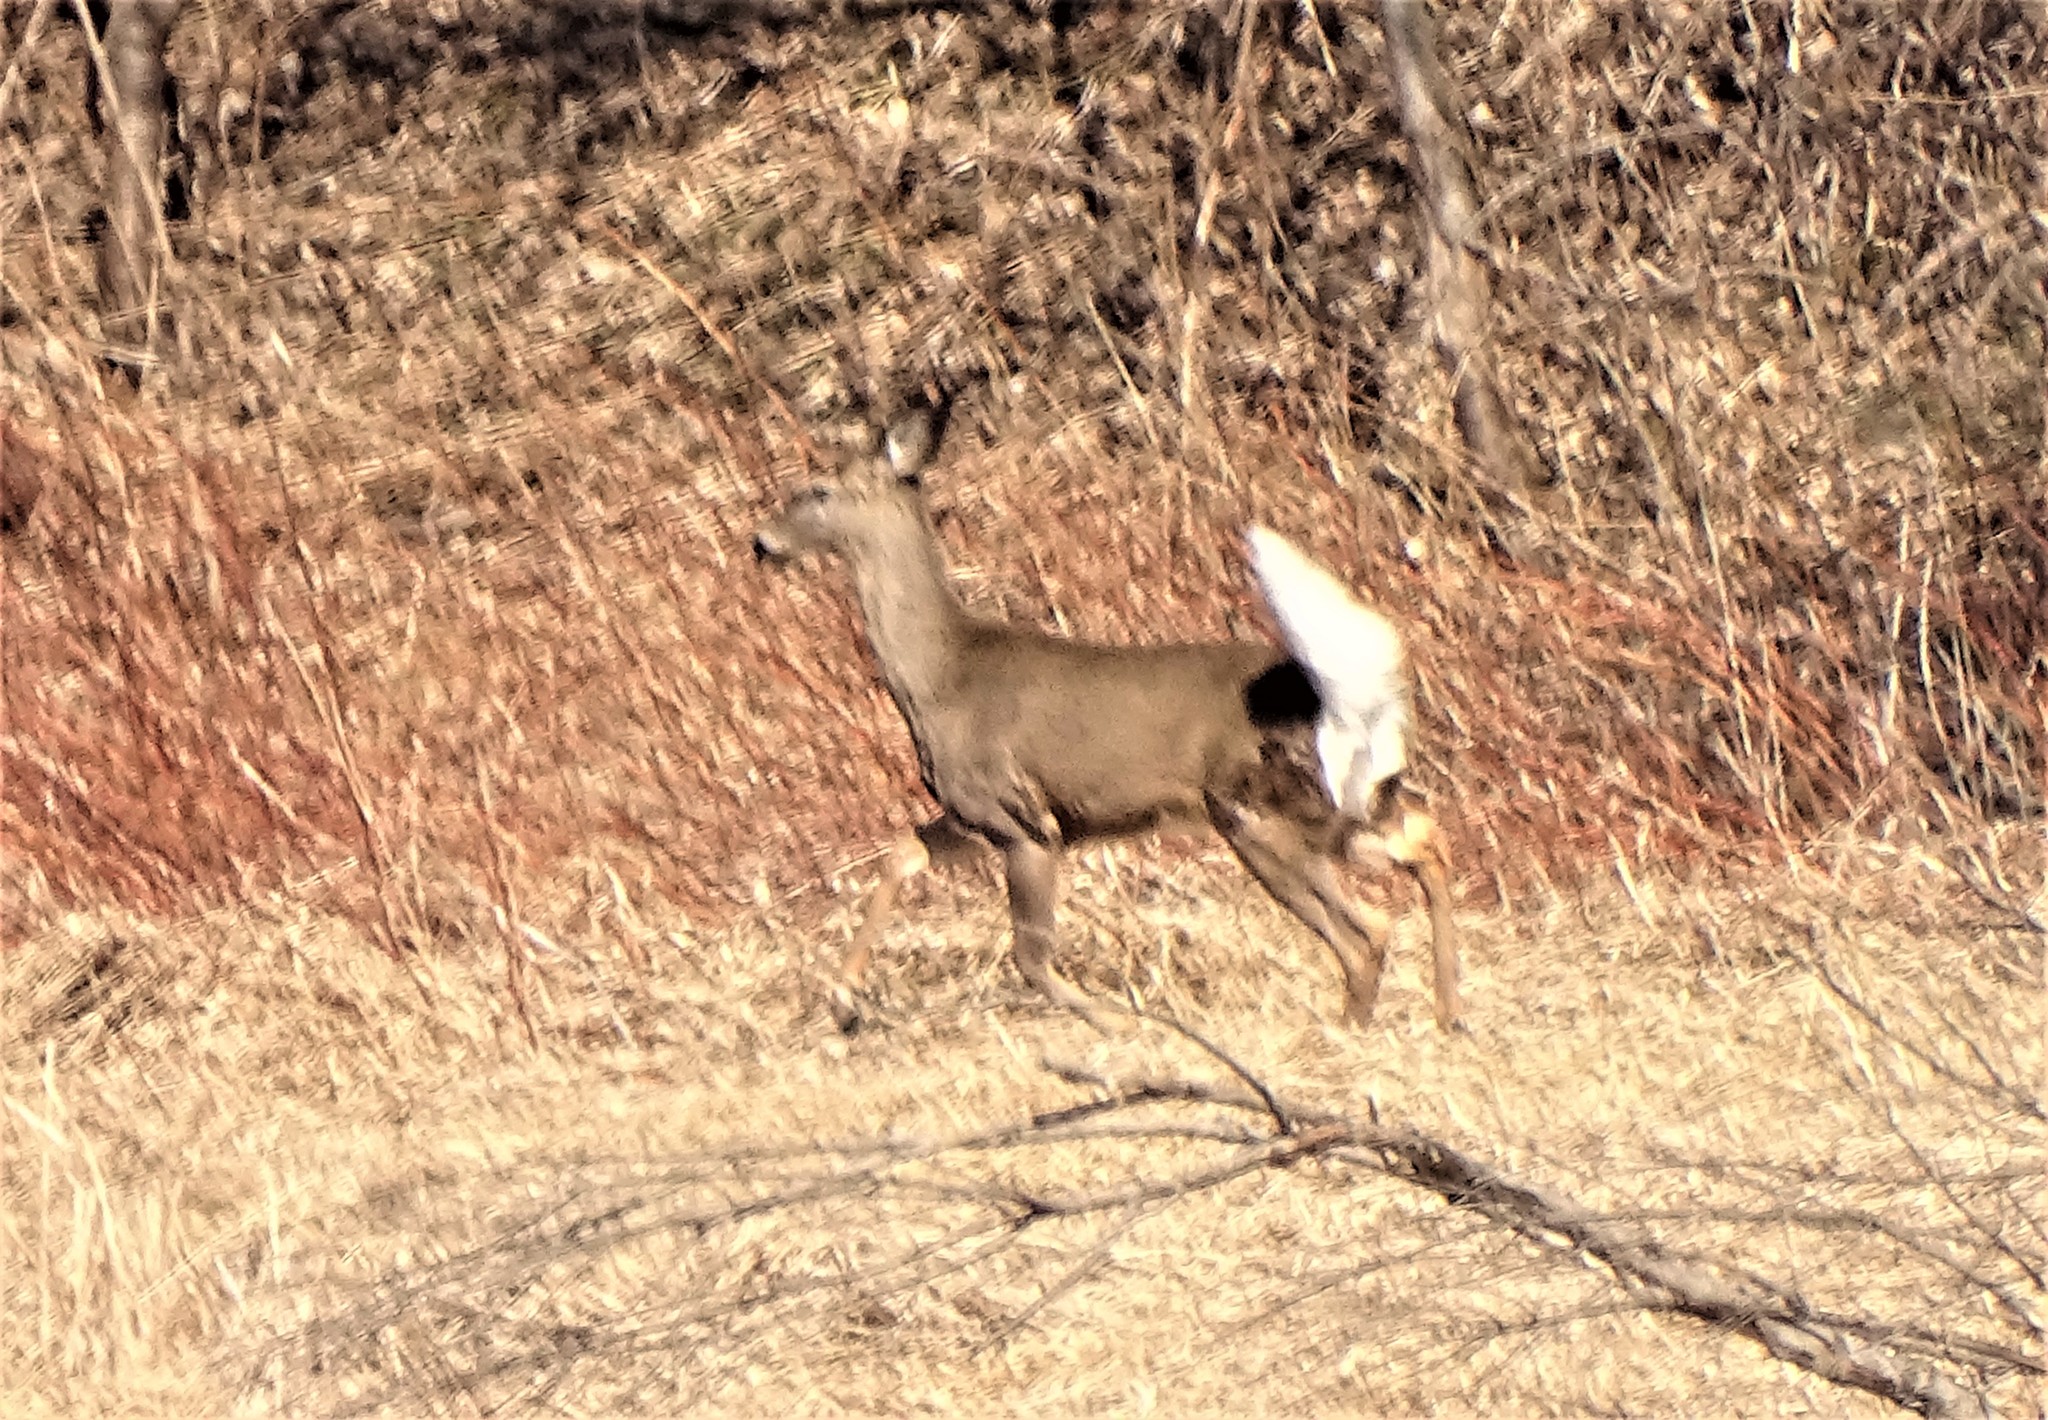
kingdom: Animalia
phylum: Chordata
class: Mammalia
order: Artiodactyla
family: Cervidae
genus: Odocoileus
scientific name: Odocoileus virginianus
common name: White-tailed deer
